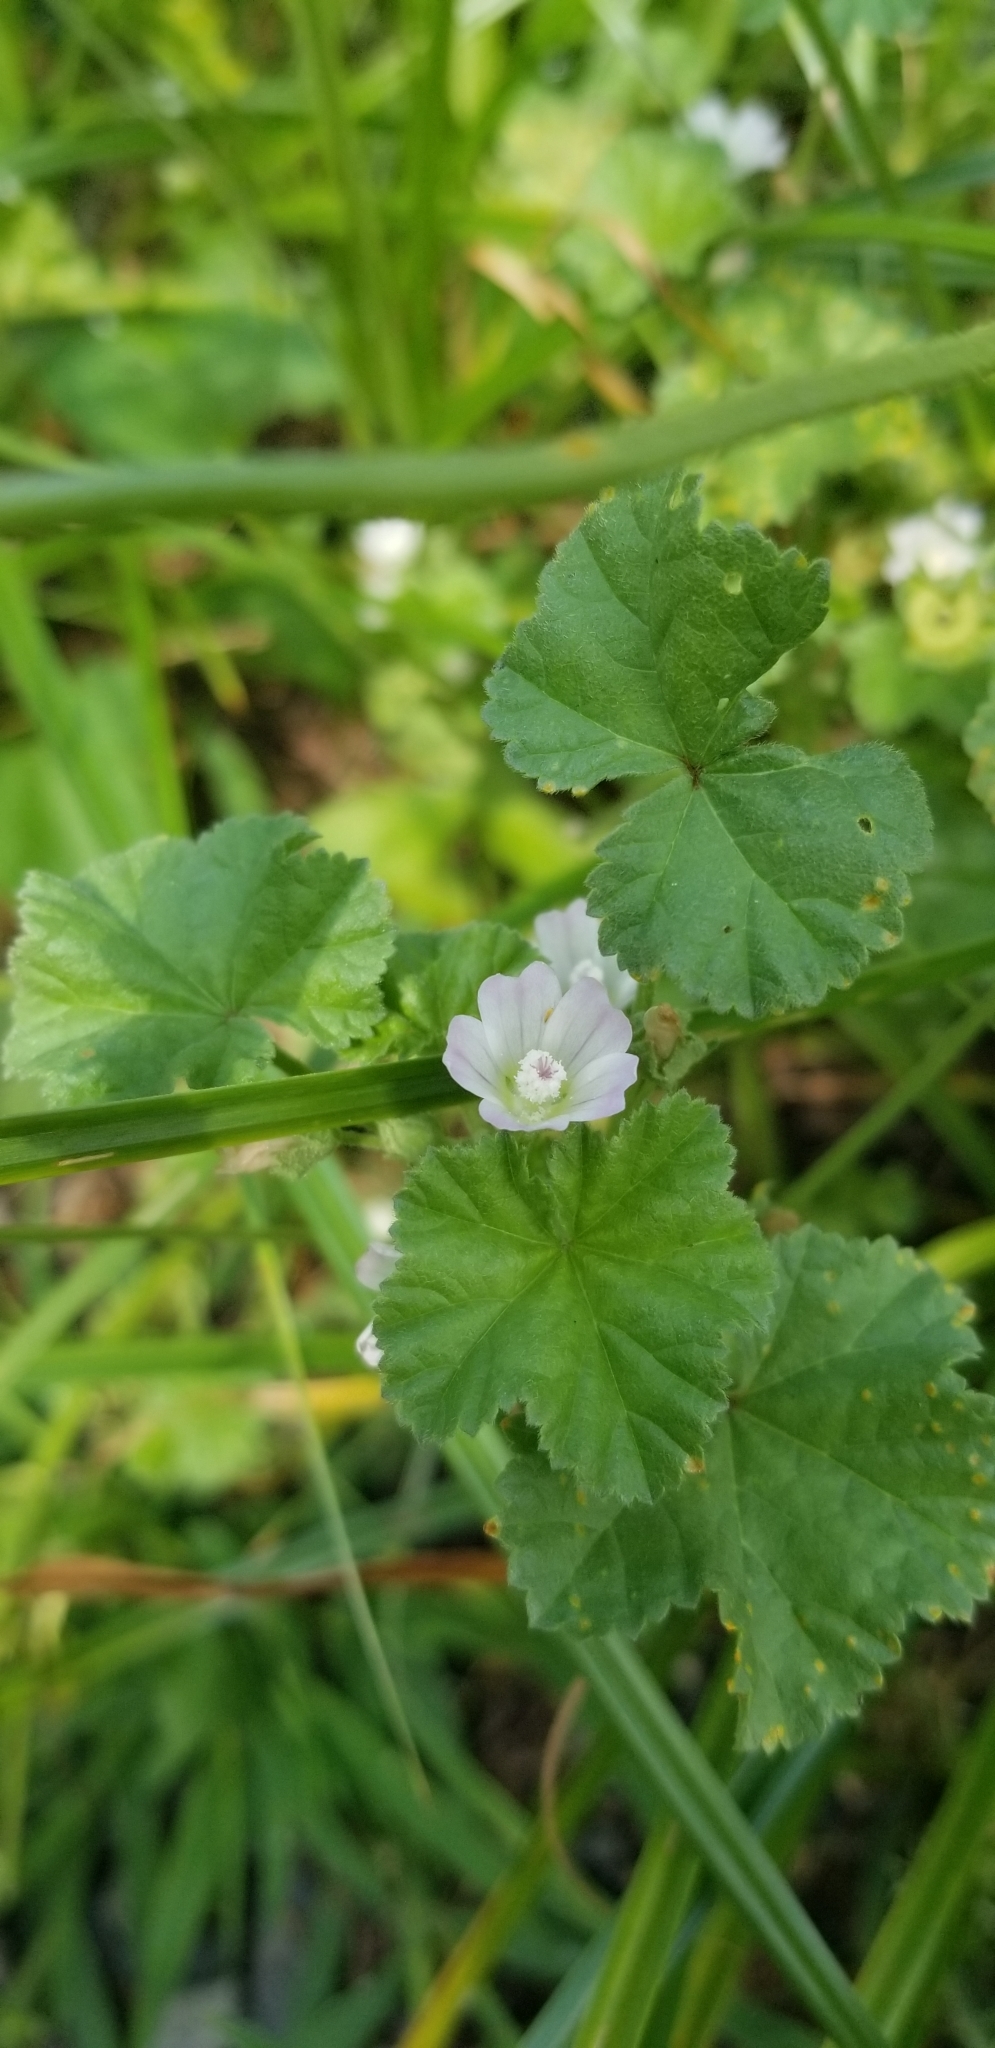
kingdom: Plantae
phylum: Tracheophyta
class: Magnoliopsida
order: Malvales
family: Malvaceae
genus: Malva
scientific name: Malva neglecta
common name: Common mallow
